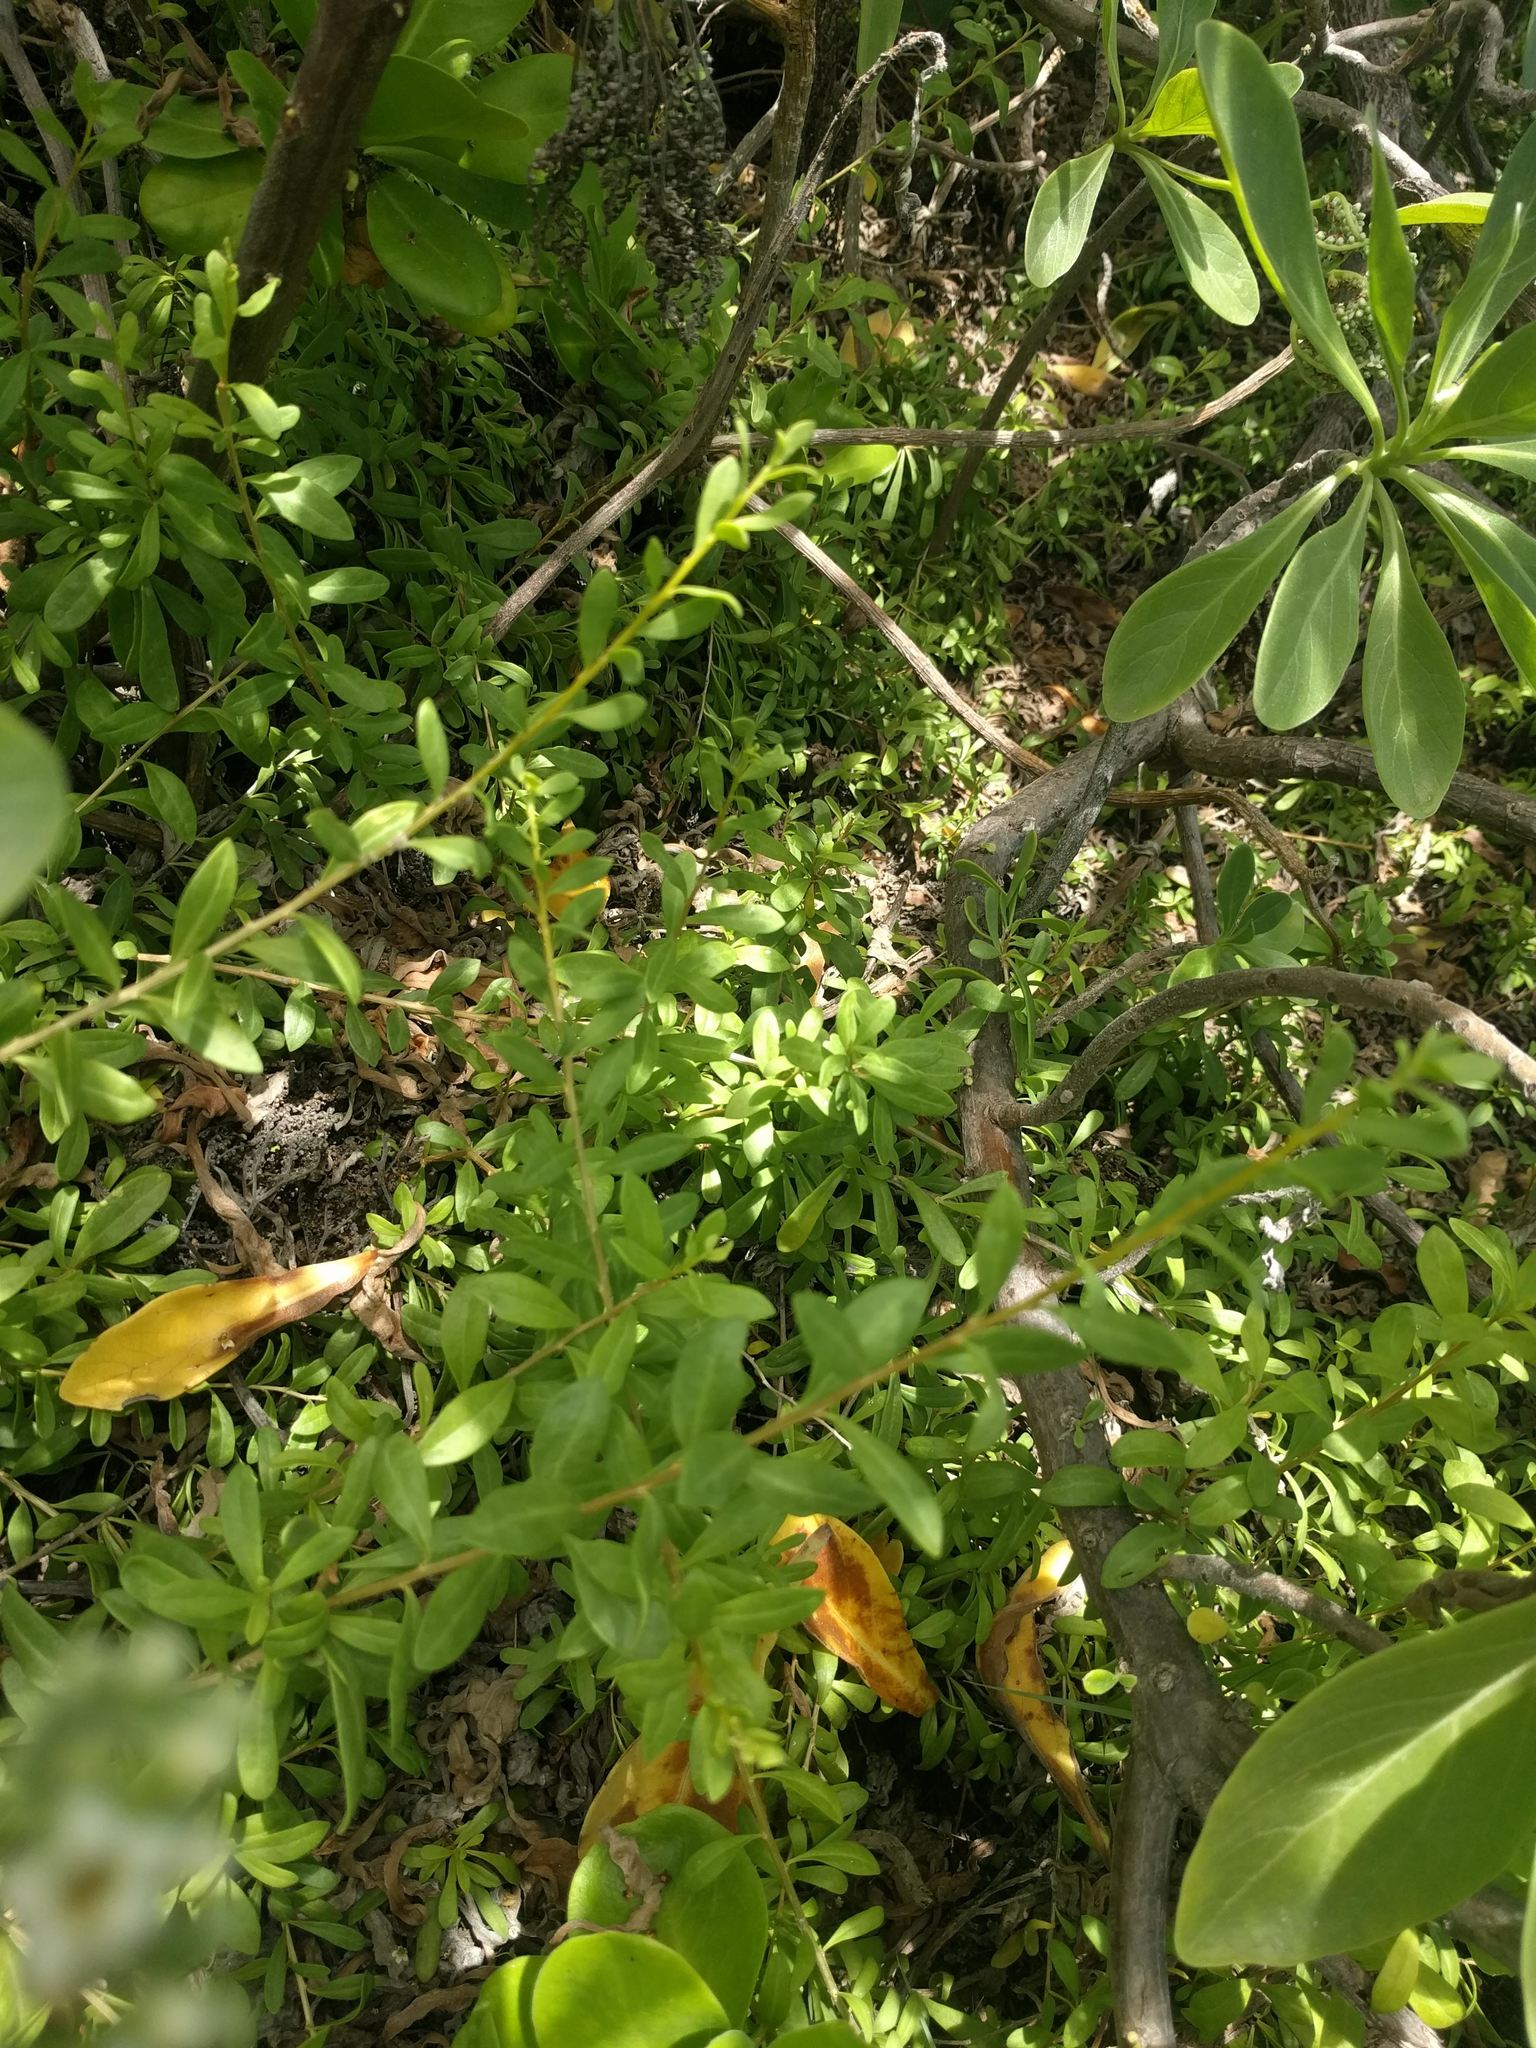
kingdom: Plantae
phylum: Tracheophyta
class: Magnoliopsida
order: Solanales
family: Solanaceae
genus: Lycium
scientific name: Lycium sandwicense
